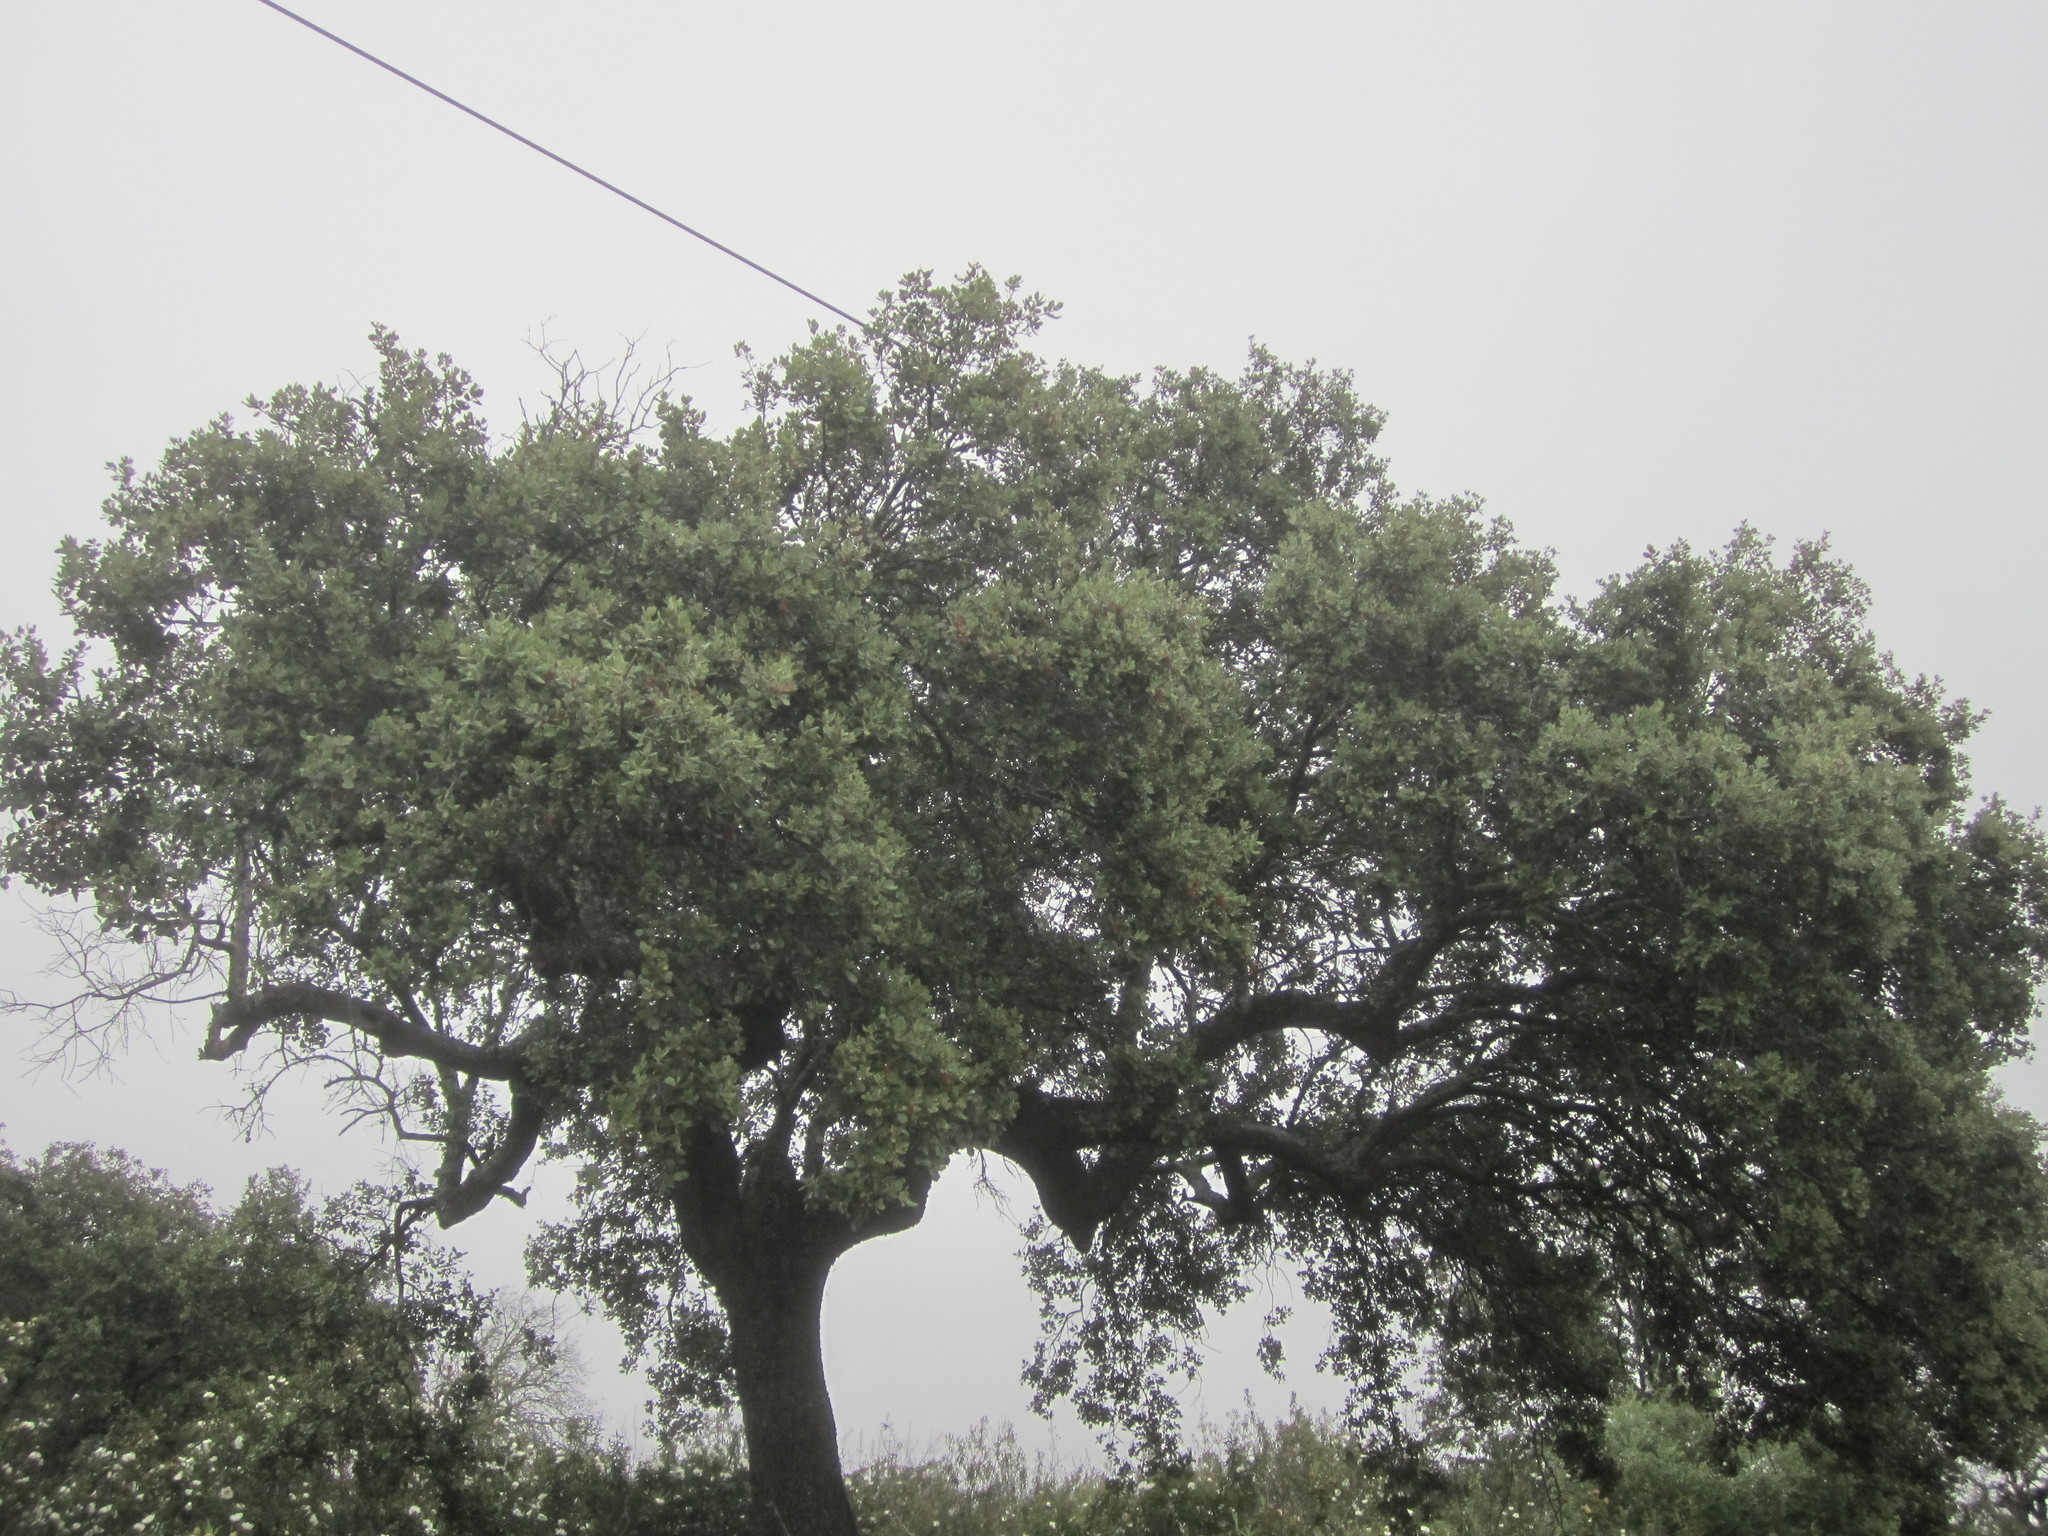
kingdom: Plantae
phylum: Tracheophyta
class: Magnoliopsida
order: Fagales
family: Fagaceae
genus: Quercus
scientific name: Quercus rotundifolia
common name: Holm oak
